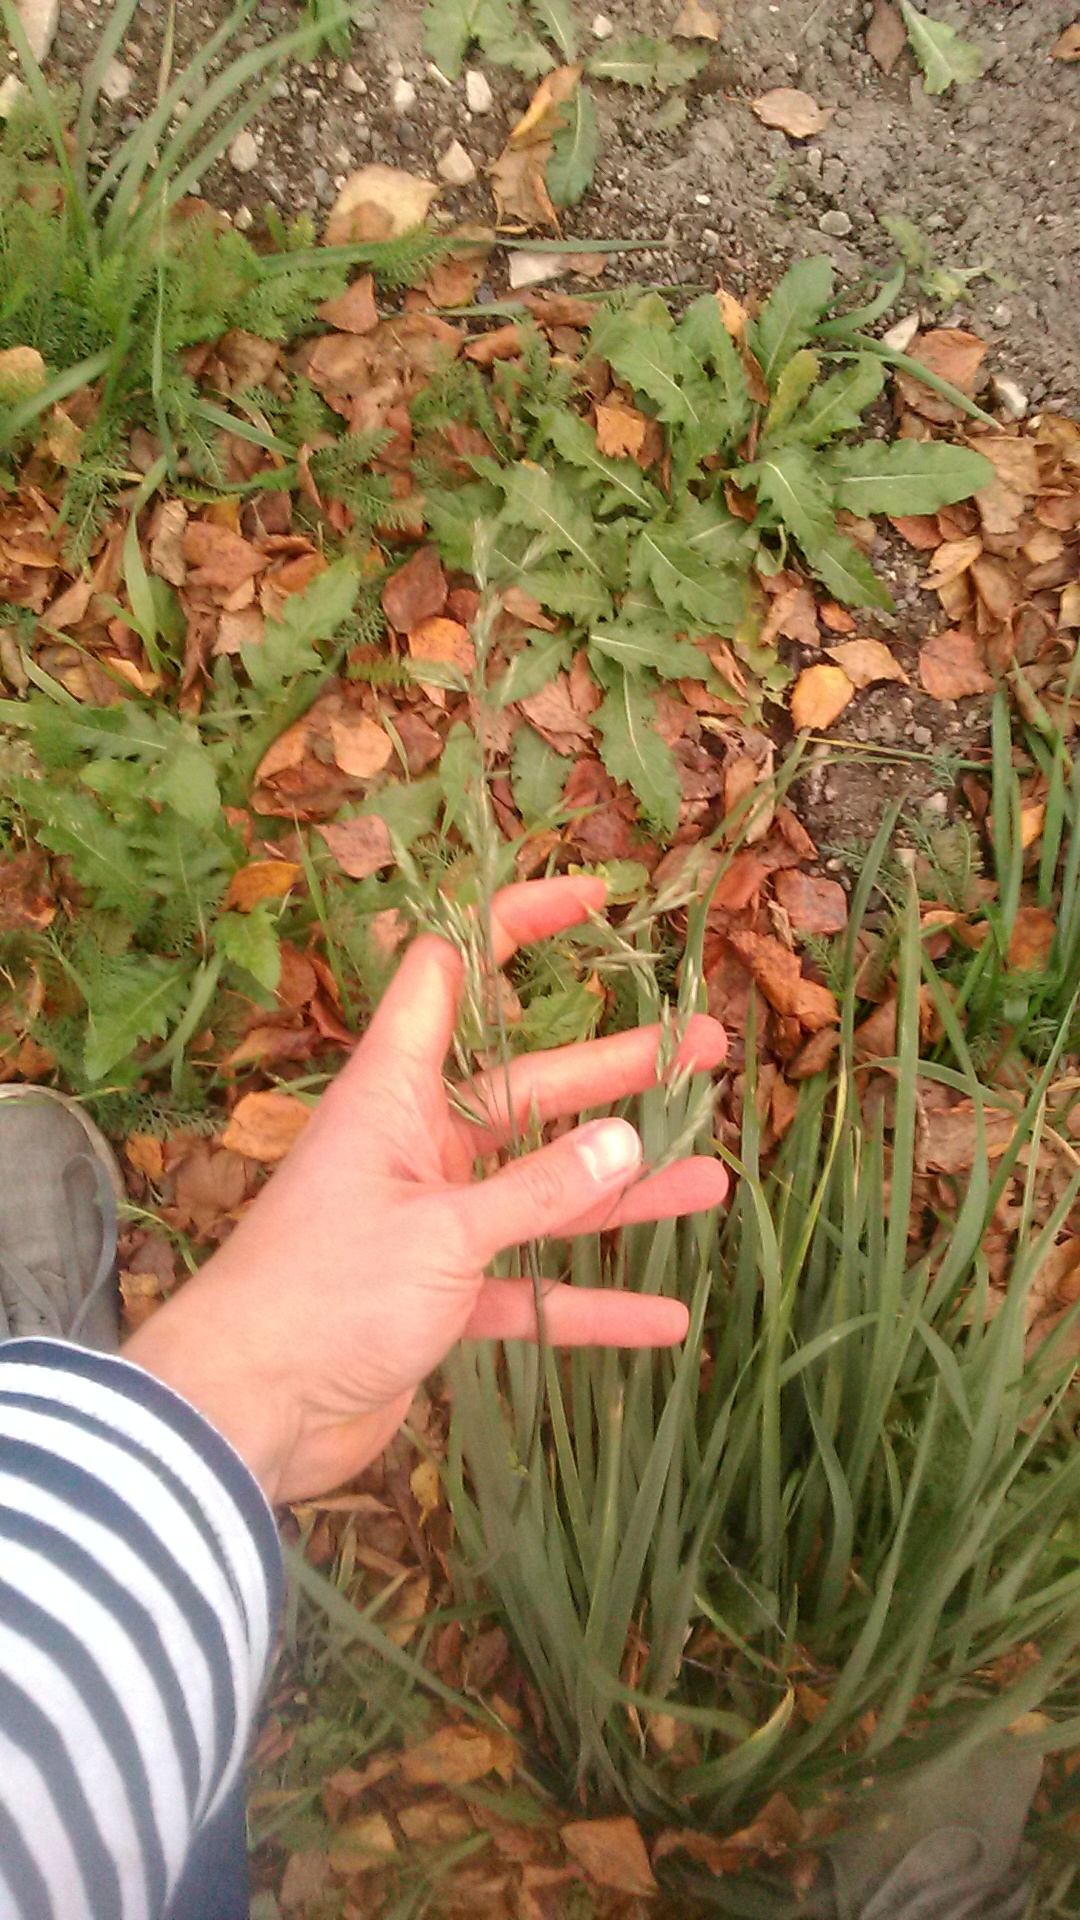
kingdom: Plantae
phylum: Tracheophyta
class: Liliopsida
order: Poales
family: Poaceae
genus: Lolium
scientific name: Lolium arundinaceum
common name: Reed fescue
